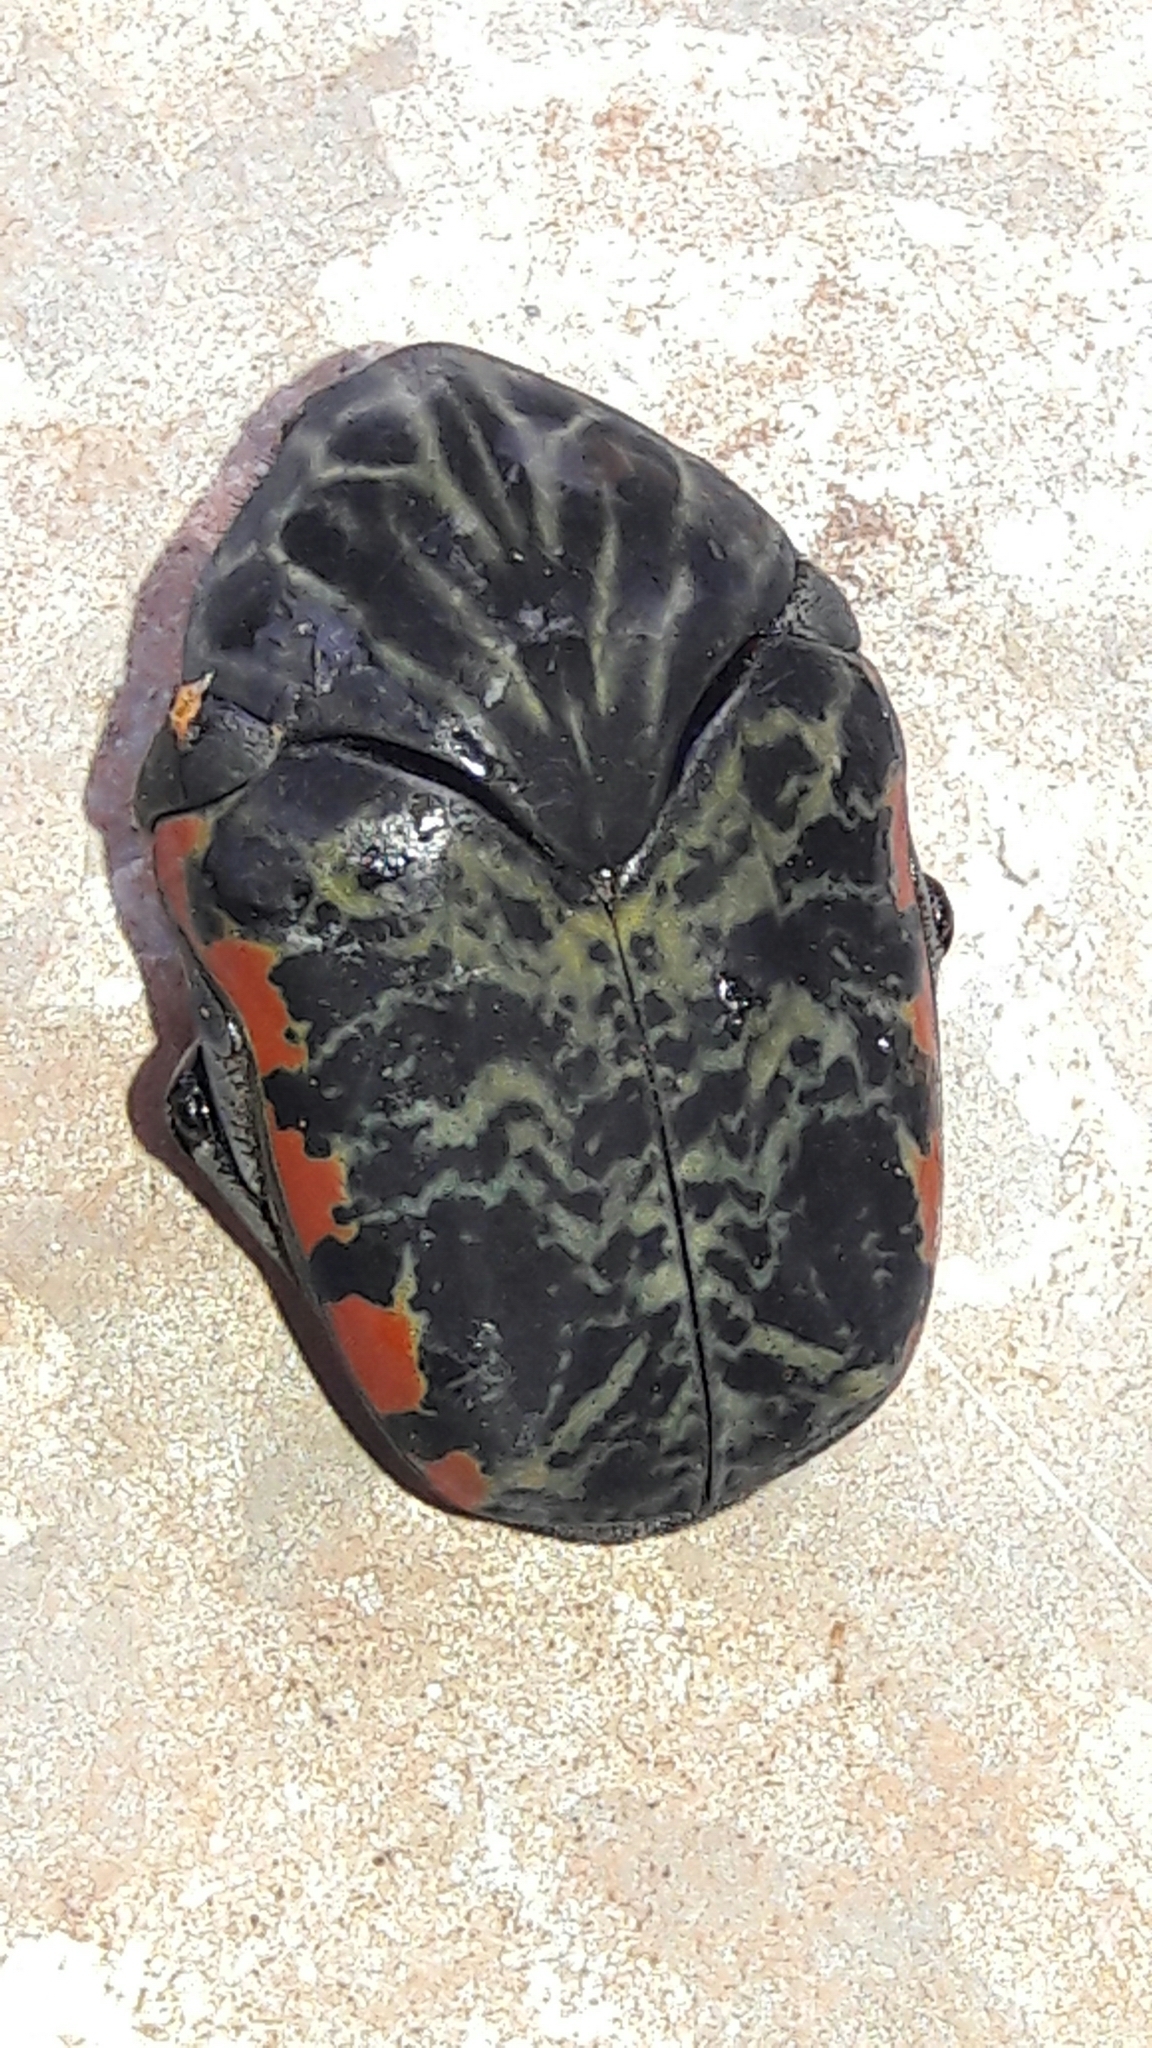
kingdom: Animalia
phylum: Arthropoda
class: Insecta
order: Coleoptera
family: Scarabaeidae
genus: Gymnetis
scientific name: Gymnetis rufilatris
